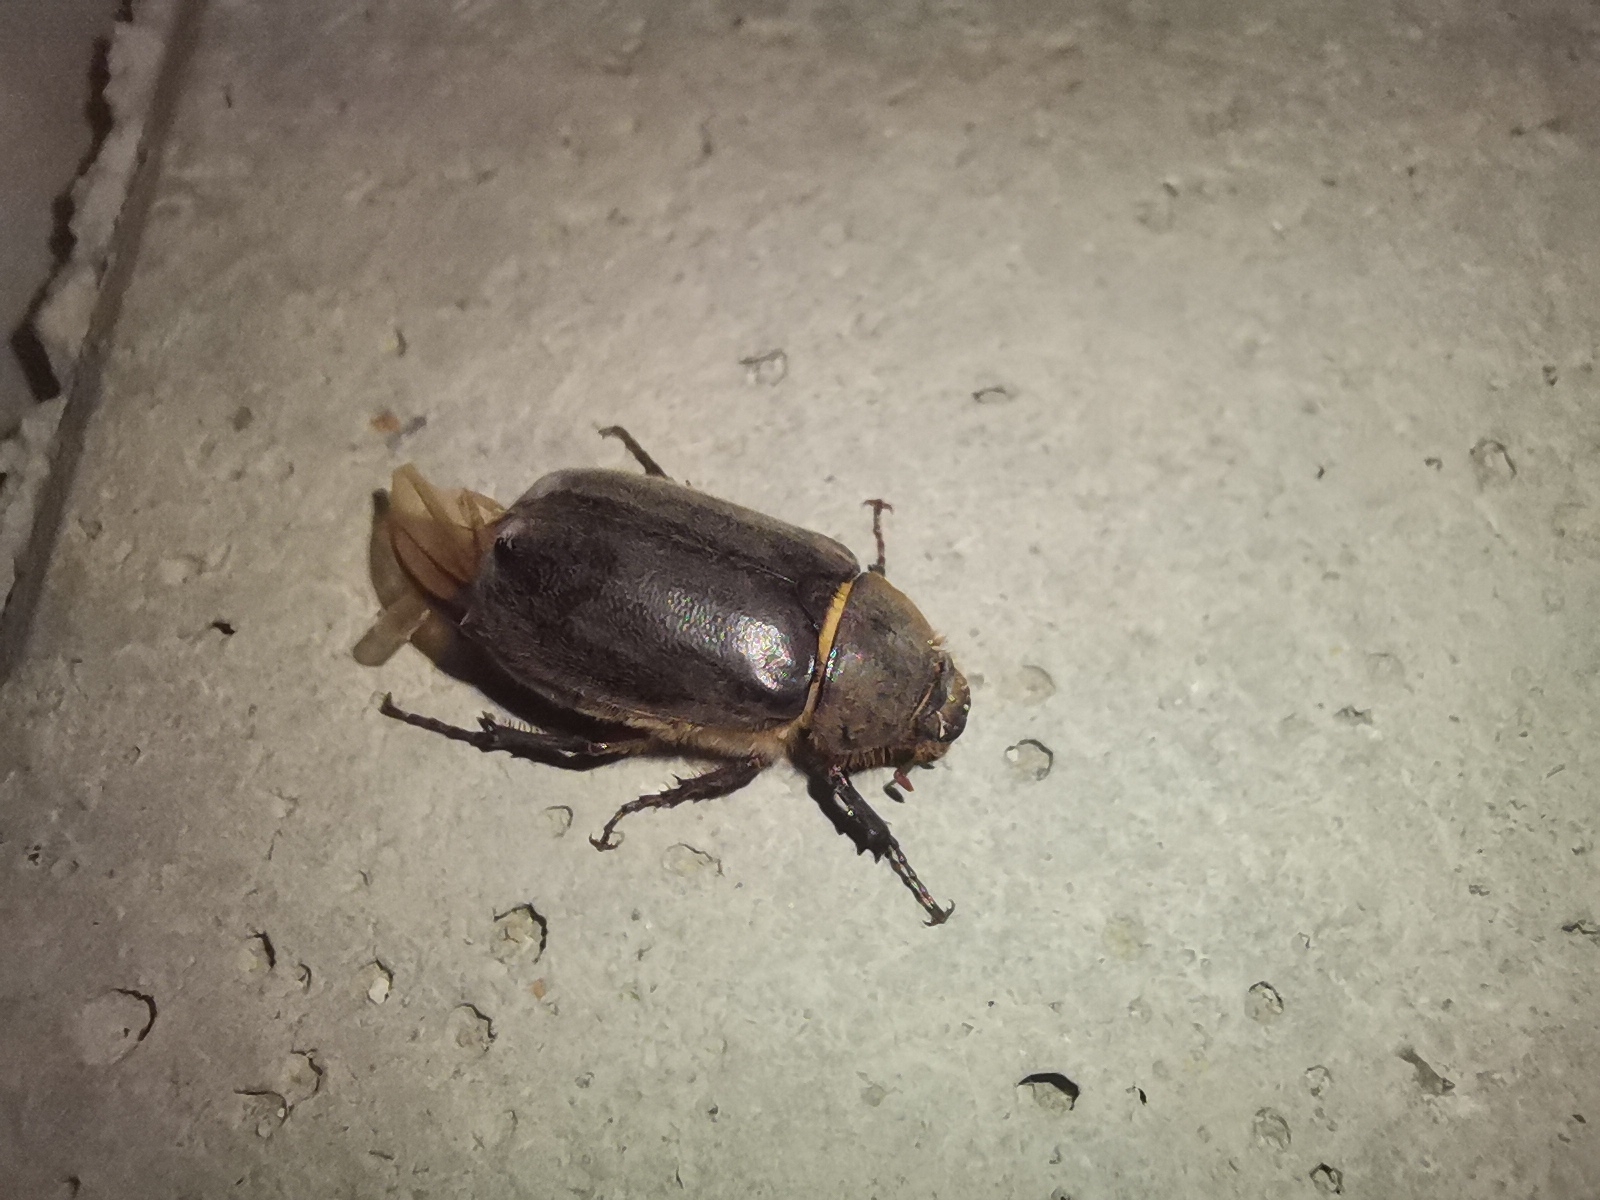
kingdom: Animalia
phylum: Arthropoda
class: Insecta
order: Coleoptera
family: Scarabaeidae
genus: Aplidia
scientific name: Aplidia
